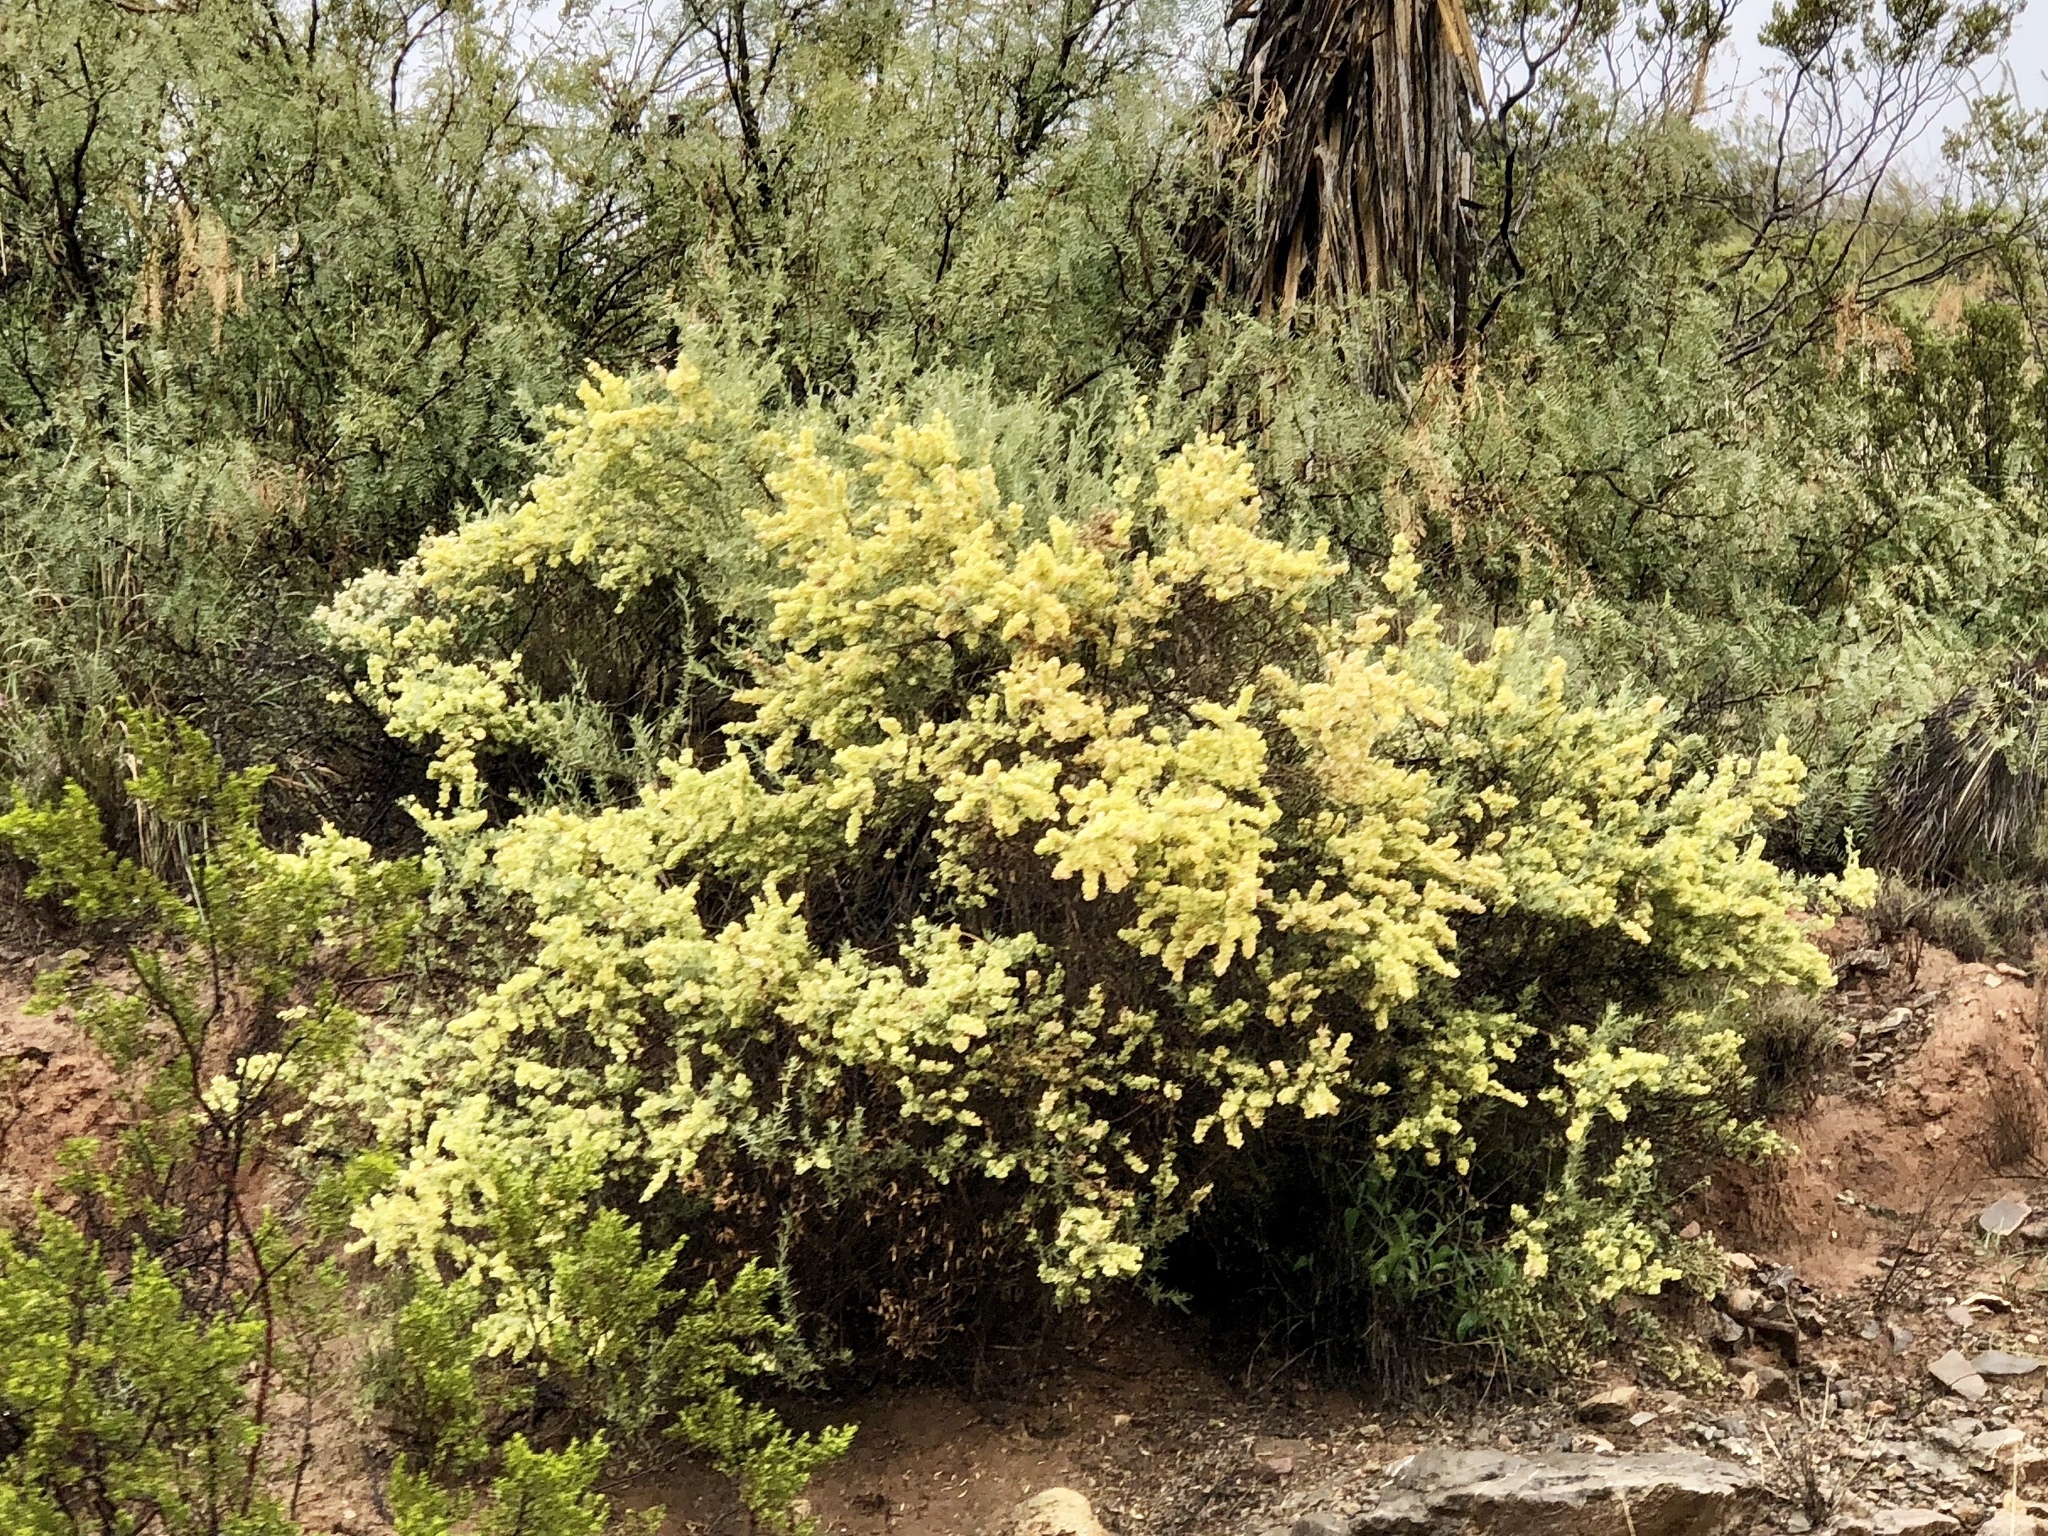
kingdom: Plantae
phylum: Tracheophyta
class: Magnoliopsida
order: Caryophyllales
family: Amaranthaceae
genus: Atriplex
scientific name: Atriplex canescens
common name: Four-wing saltbush
